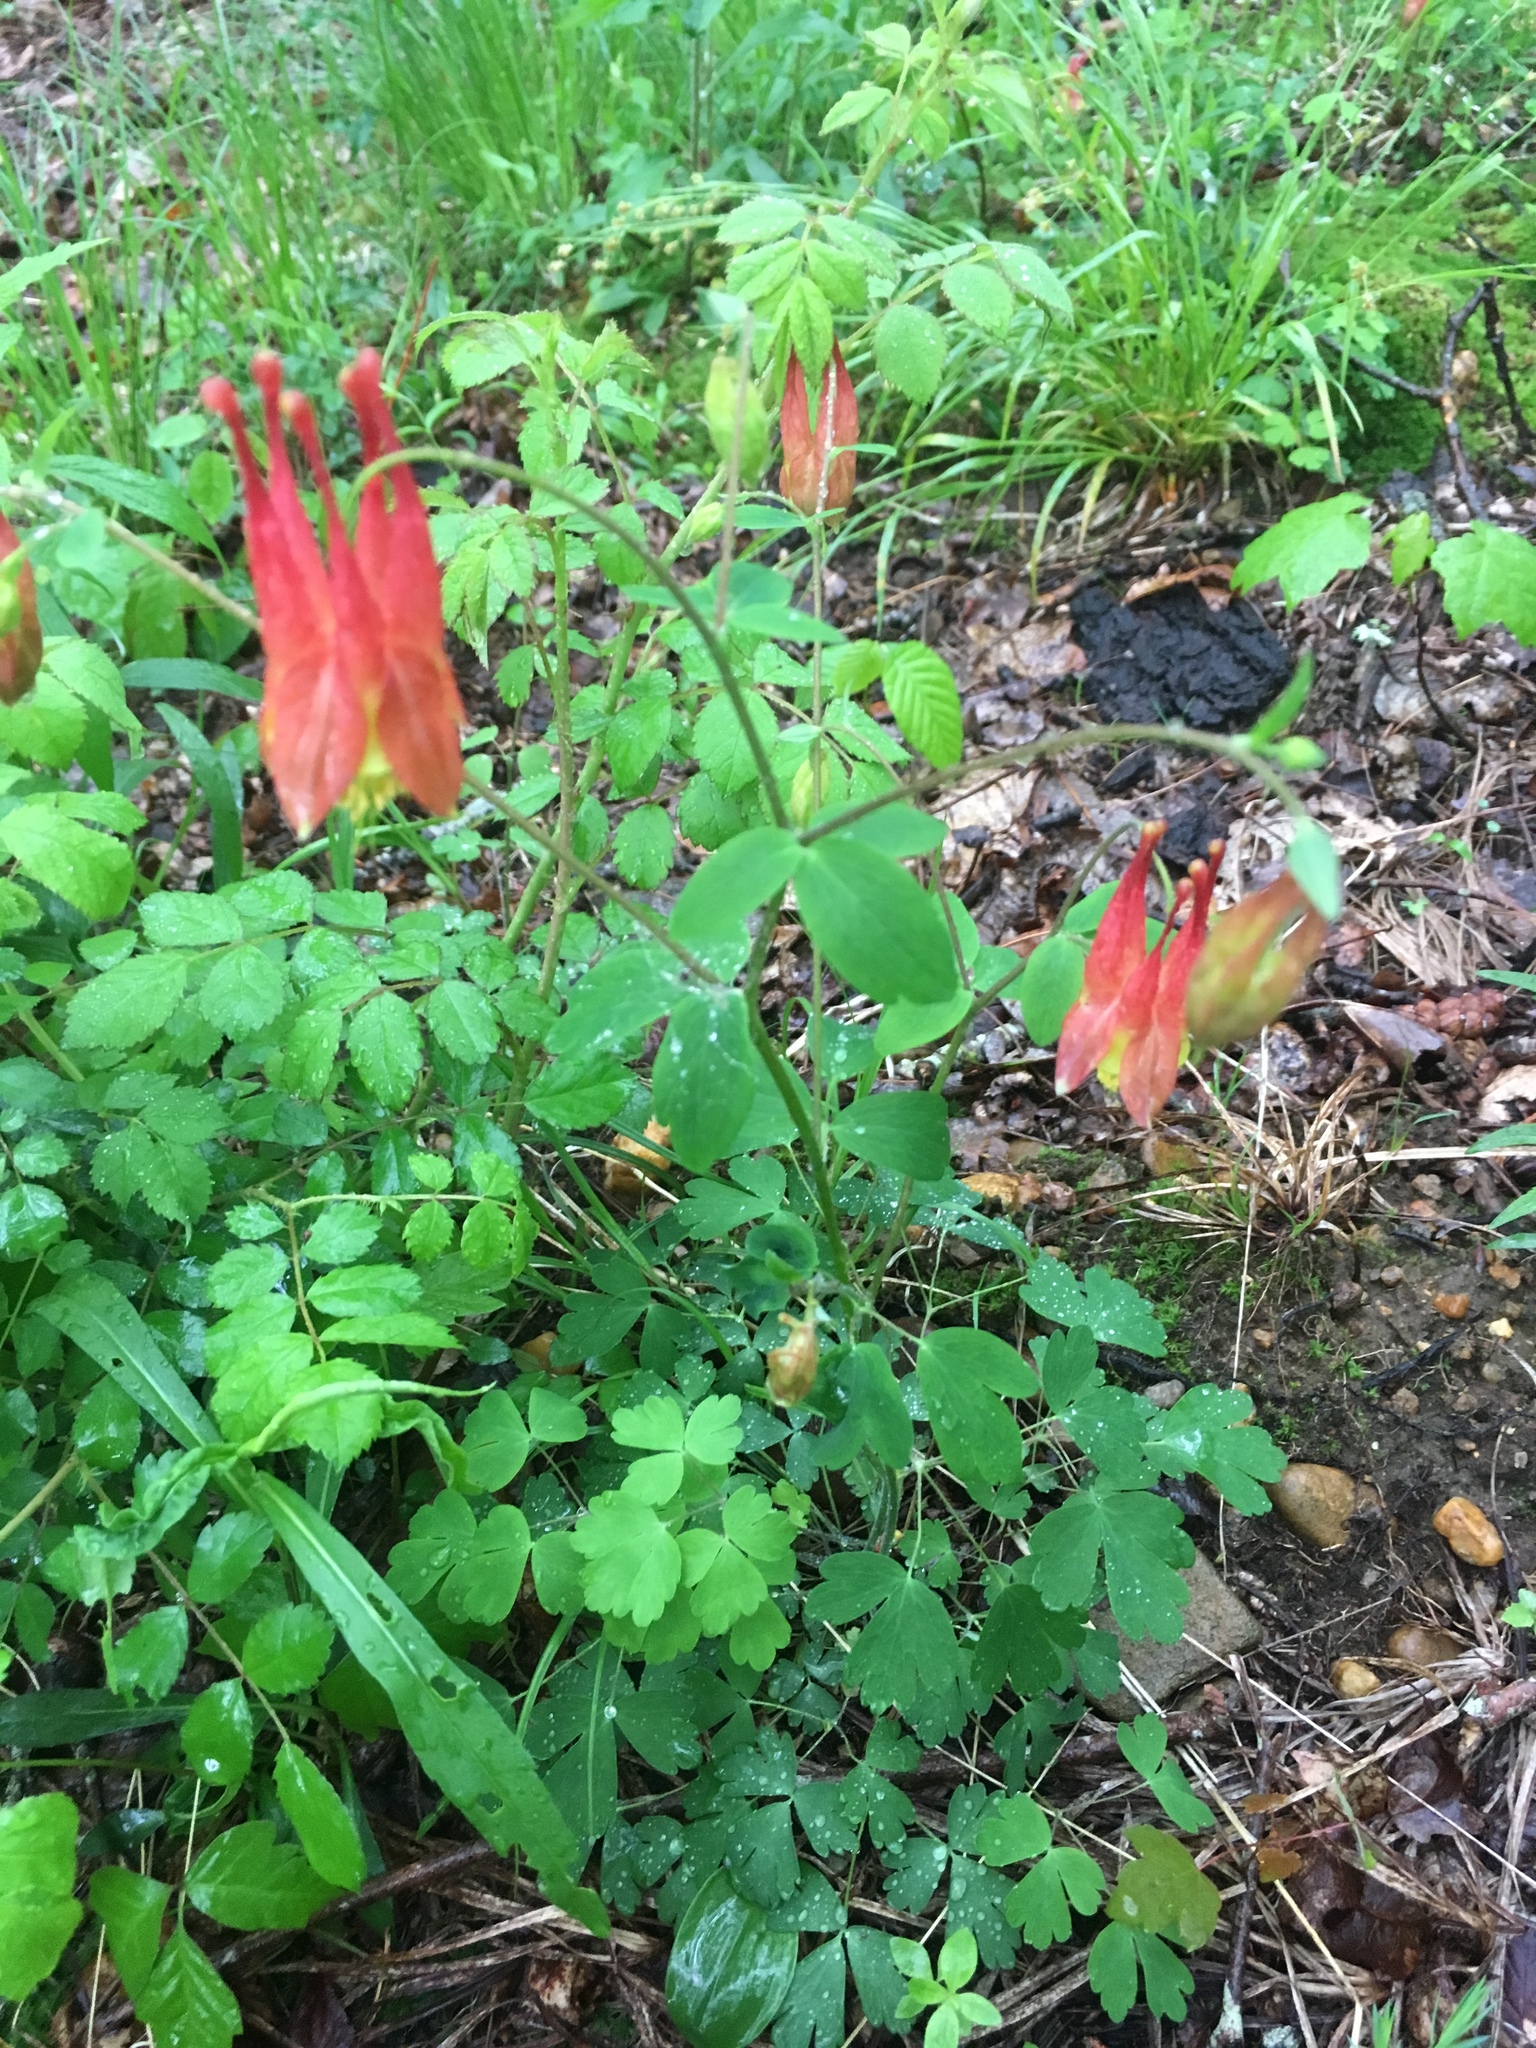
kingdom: Plantae
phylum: Tracheophyta
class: Magnoliopsida
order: Ranunculales
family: Ranunculaceae
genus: Aquilegia
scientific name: Aquilegia canadensis
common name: American columbine
